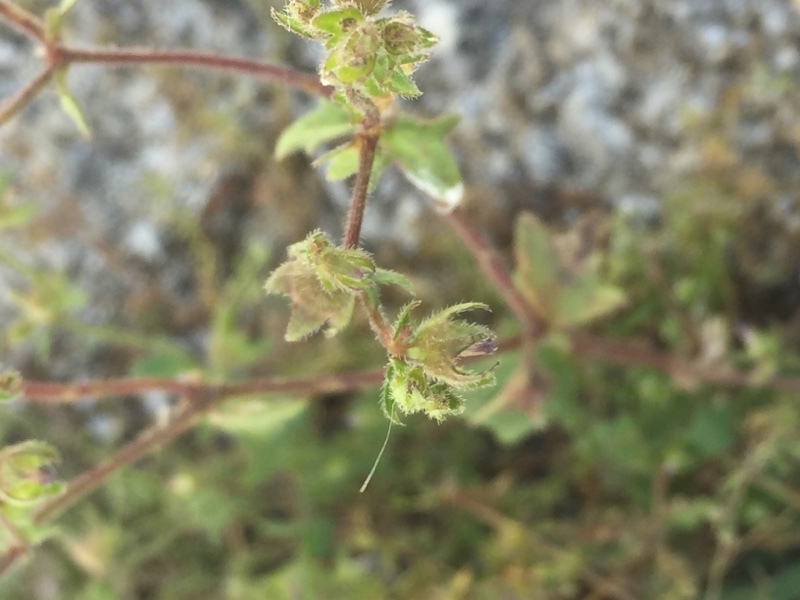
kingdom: Plantae
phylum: Tracheophyta
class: Magnoliopsida
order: Asterales
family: Campanulaceae
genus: Campanula
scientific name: Campanula erinus
